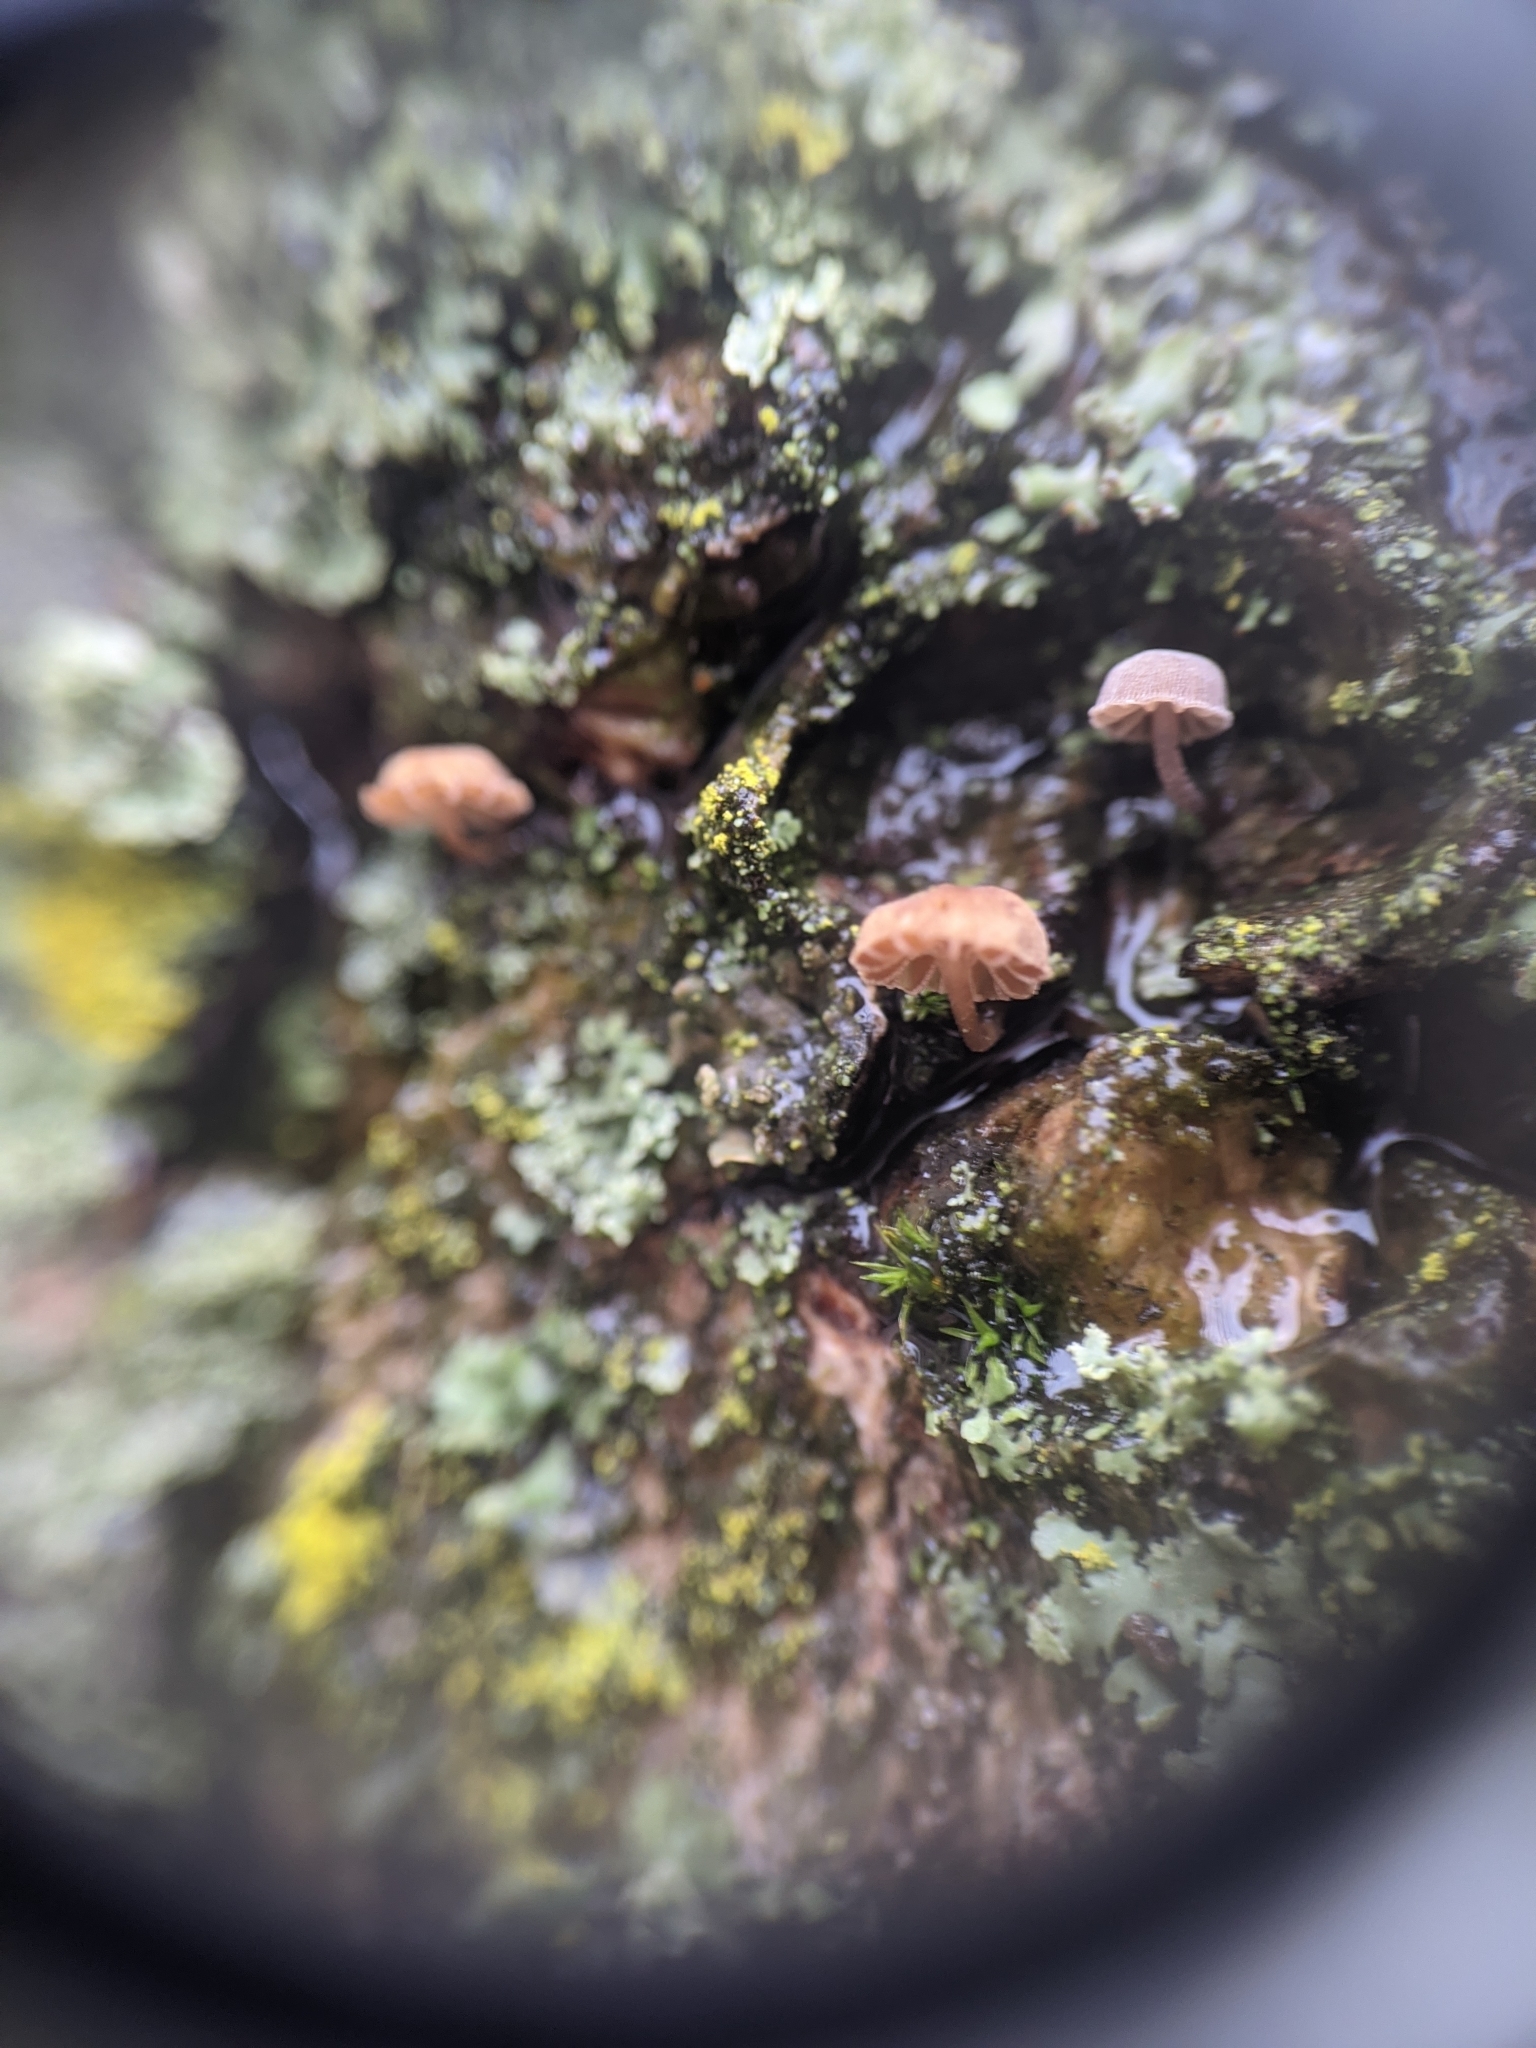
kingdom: Fungi
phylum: Basidiomycota
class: Agaricomycetes
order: Agaricales
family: Mycenaceae
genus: Mycena
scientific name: Mycena meliigena
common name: Mauve bonnet
